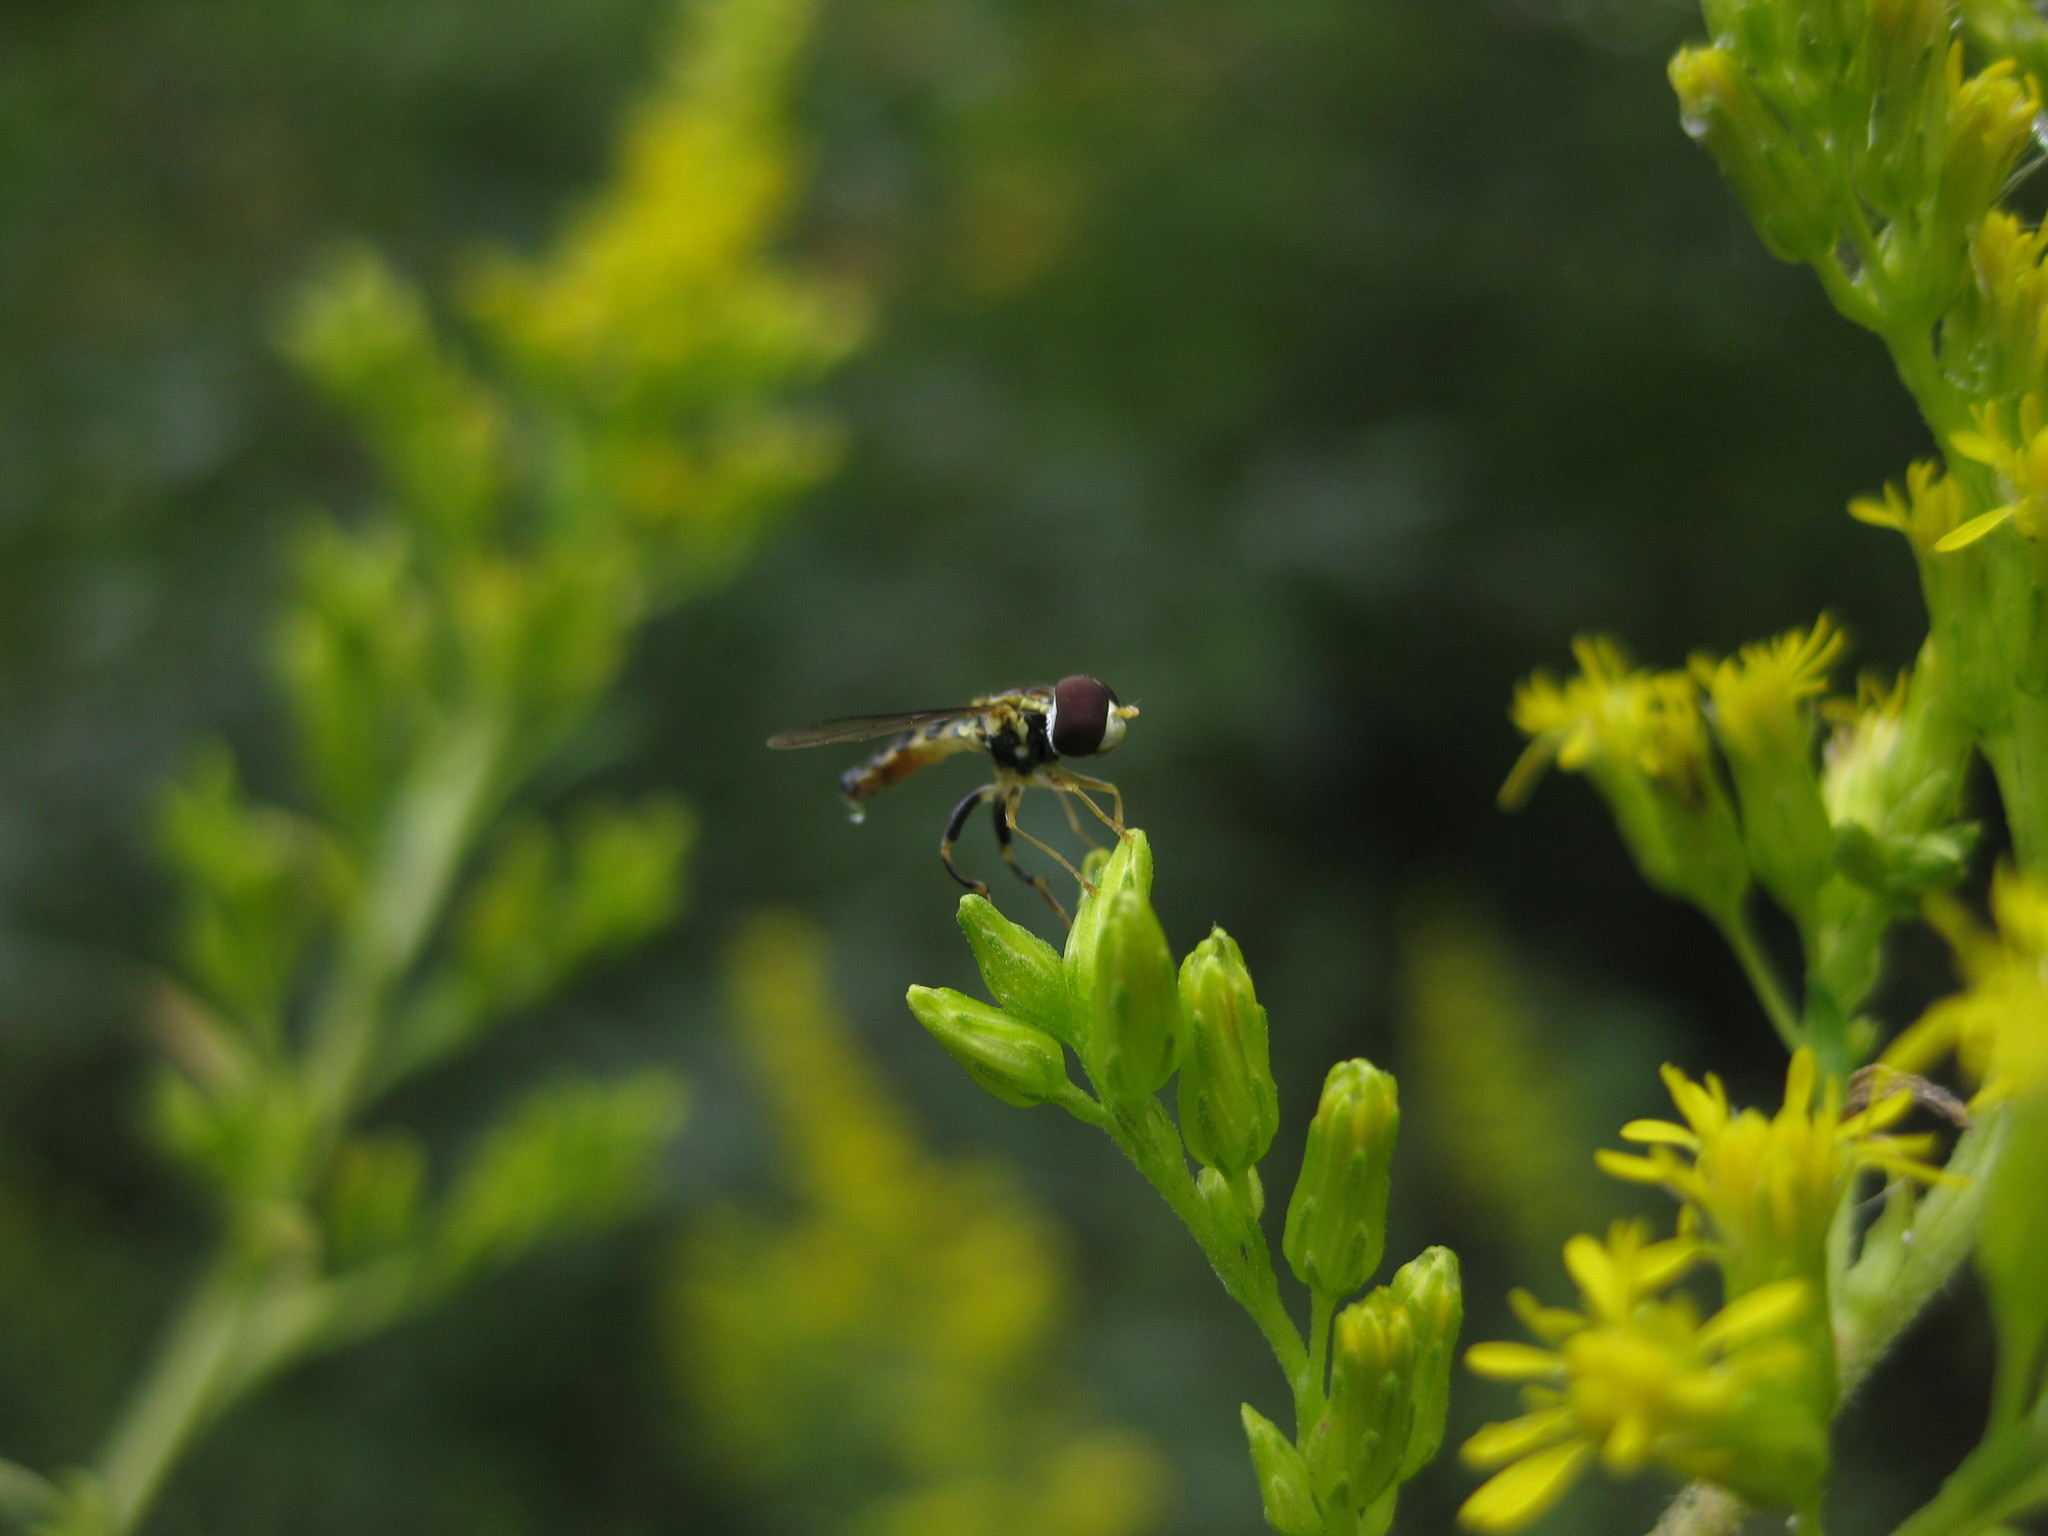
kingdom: Animalia
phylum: Arthropoda
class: Insecta
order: Diptera
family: Syrphidae
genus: Toxomerus
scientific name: Toxomerus geminatus
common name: Eastern calligrapher
